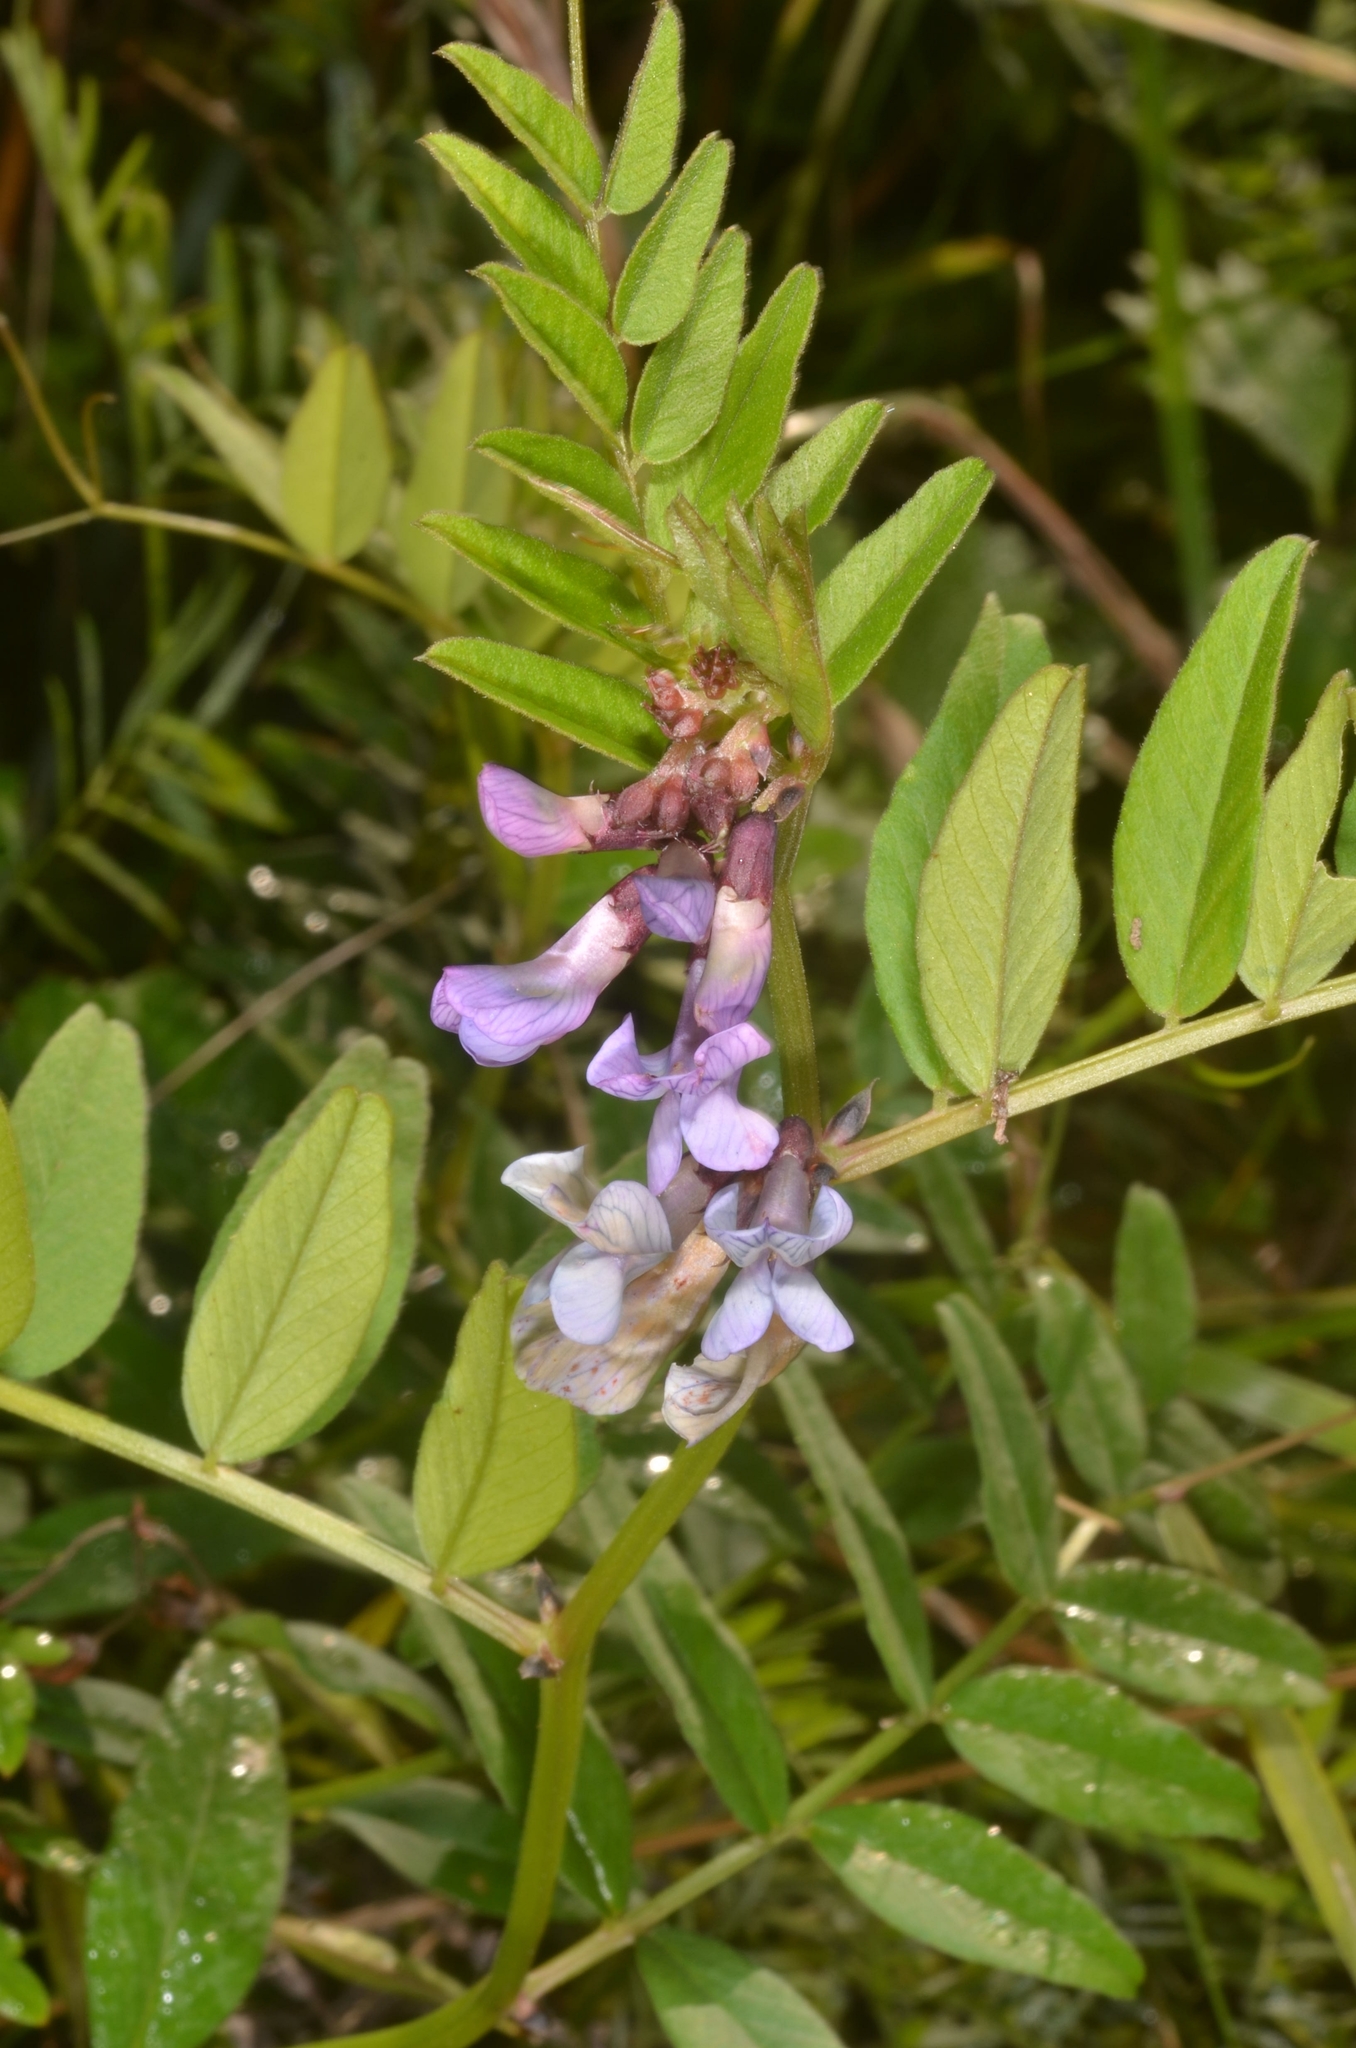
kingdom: Plantae
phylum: Tracheophyta
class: Magnoliopsida
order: Fabales
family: Fabaceae
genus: Vicia
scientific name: Vicia sepium
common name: Bush vetch
